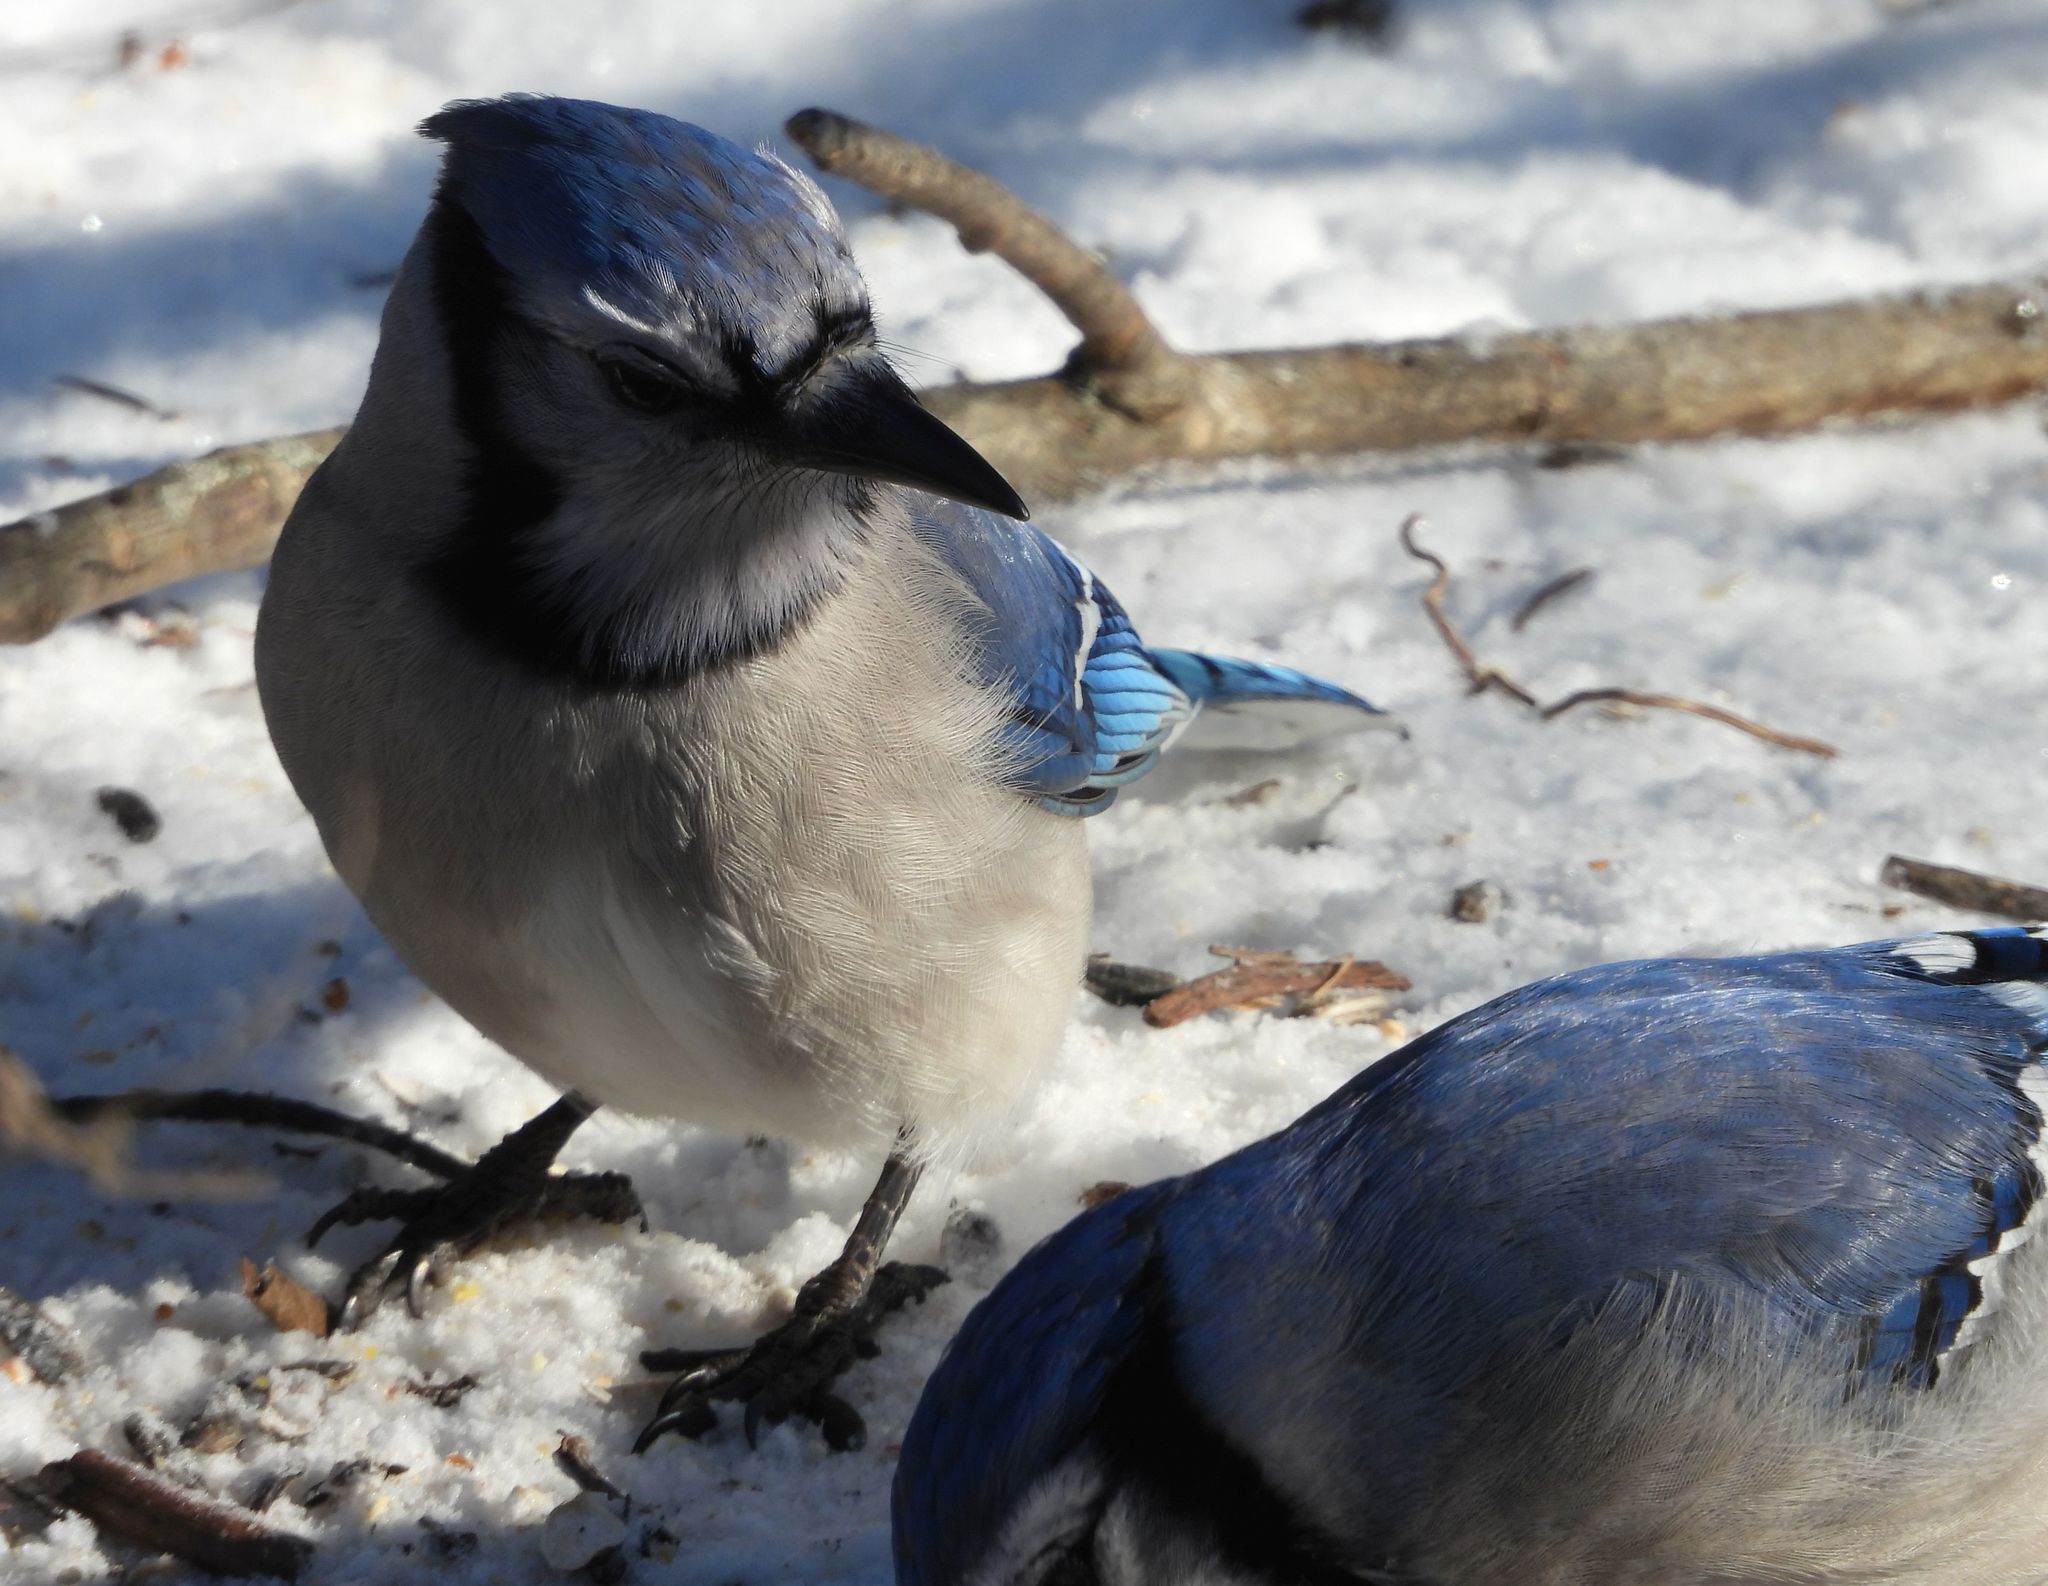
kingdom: Animalia
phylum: Chordata
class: Aves
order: Passeriformes
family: Corvidae
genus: Cyanocitta
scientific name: Cyanocitta cristata
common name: Blue jay
